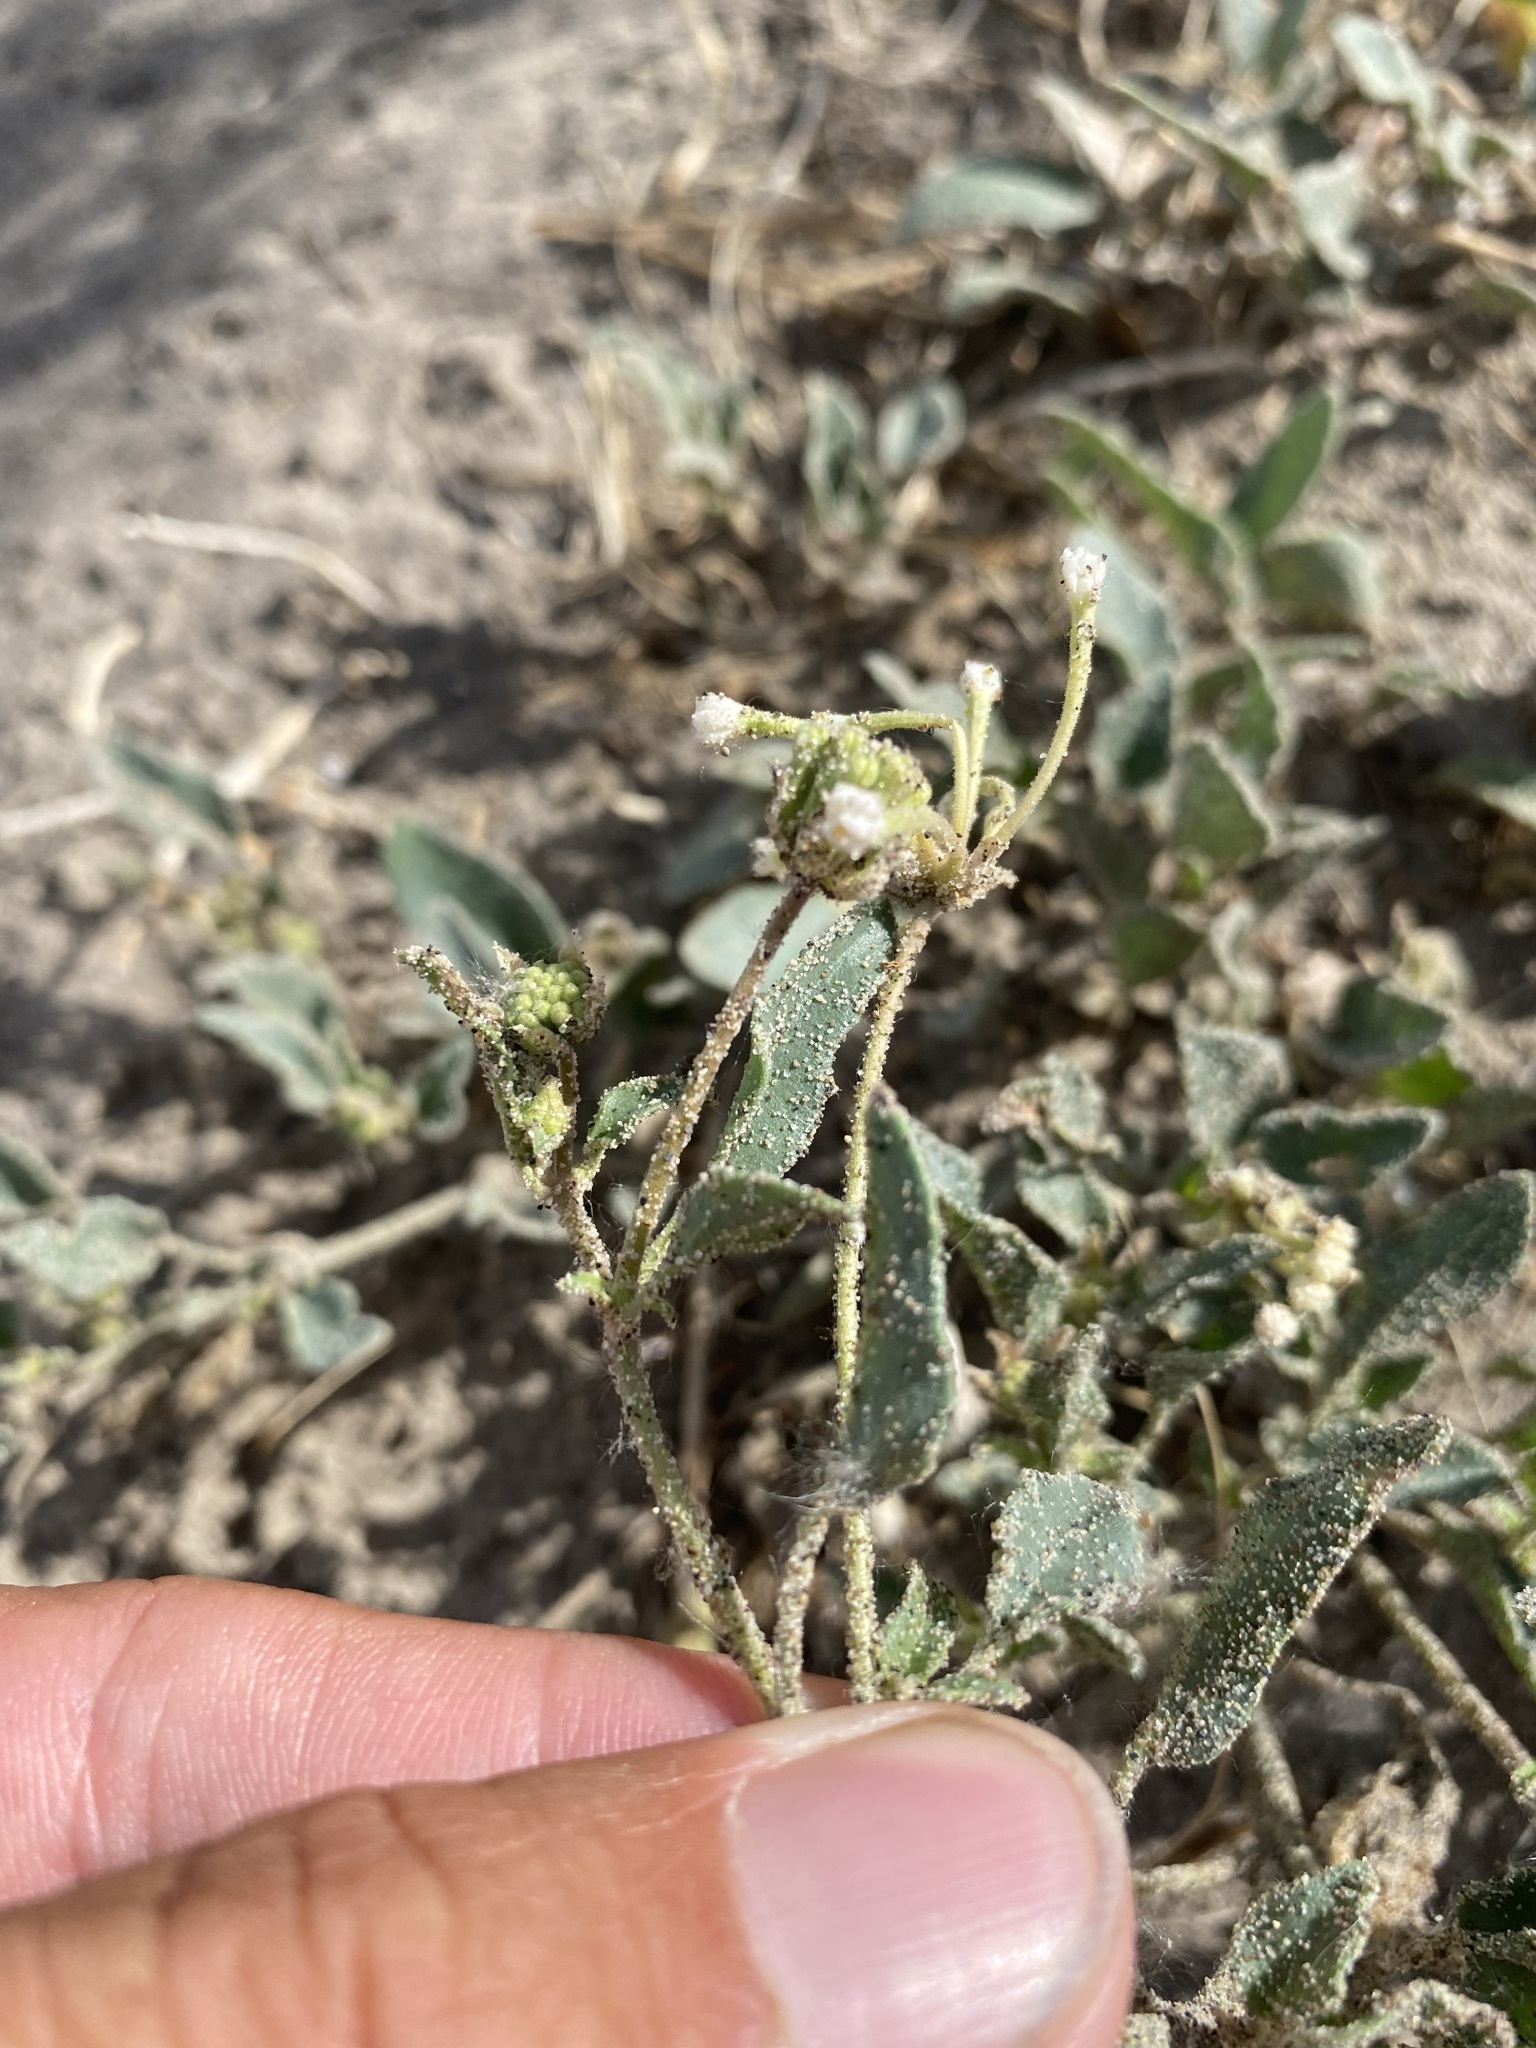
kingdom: Plantae
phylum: Tracheophyta
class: Magnoliopsida
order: Caryophyllales
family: Nyctaginaceae
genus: Abronia
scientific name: Abronia mellifera
